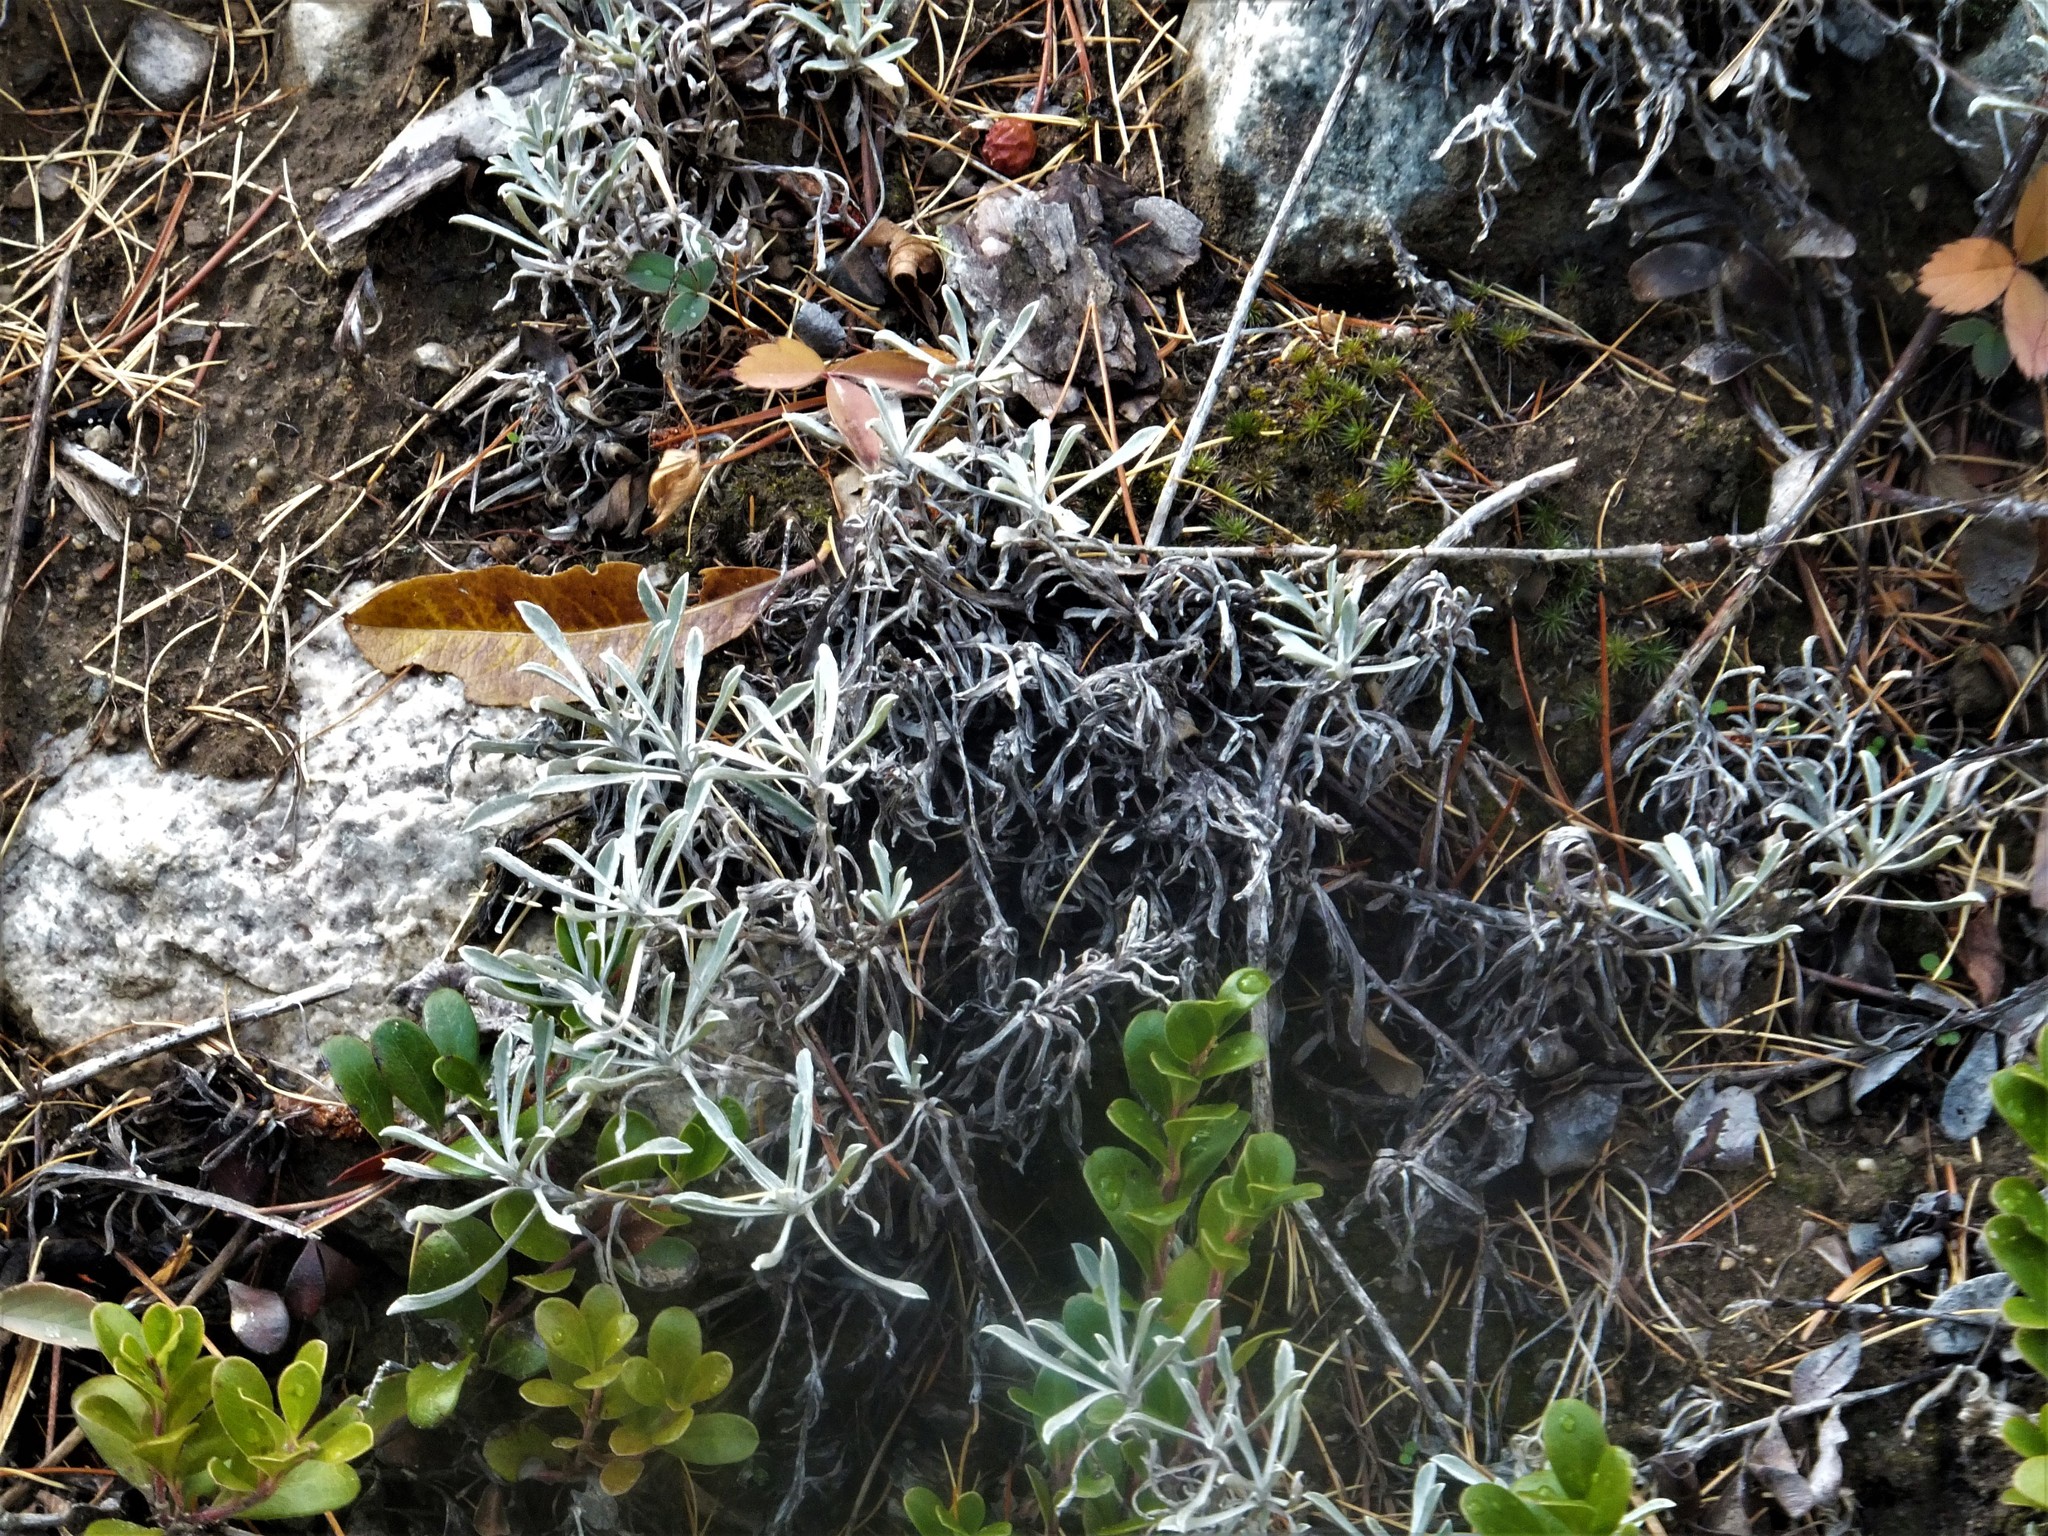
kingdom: Plantae
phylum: Tracheophyta
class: Magnoliopsida
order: Asterales
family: Asteraceae
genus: Antennaria
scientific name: Antennaria umbrinella
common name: Brown pussytoes
